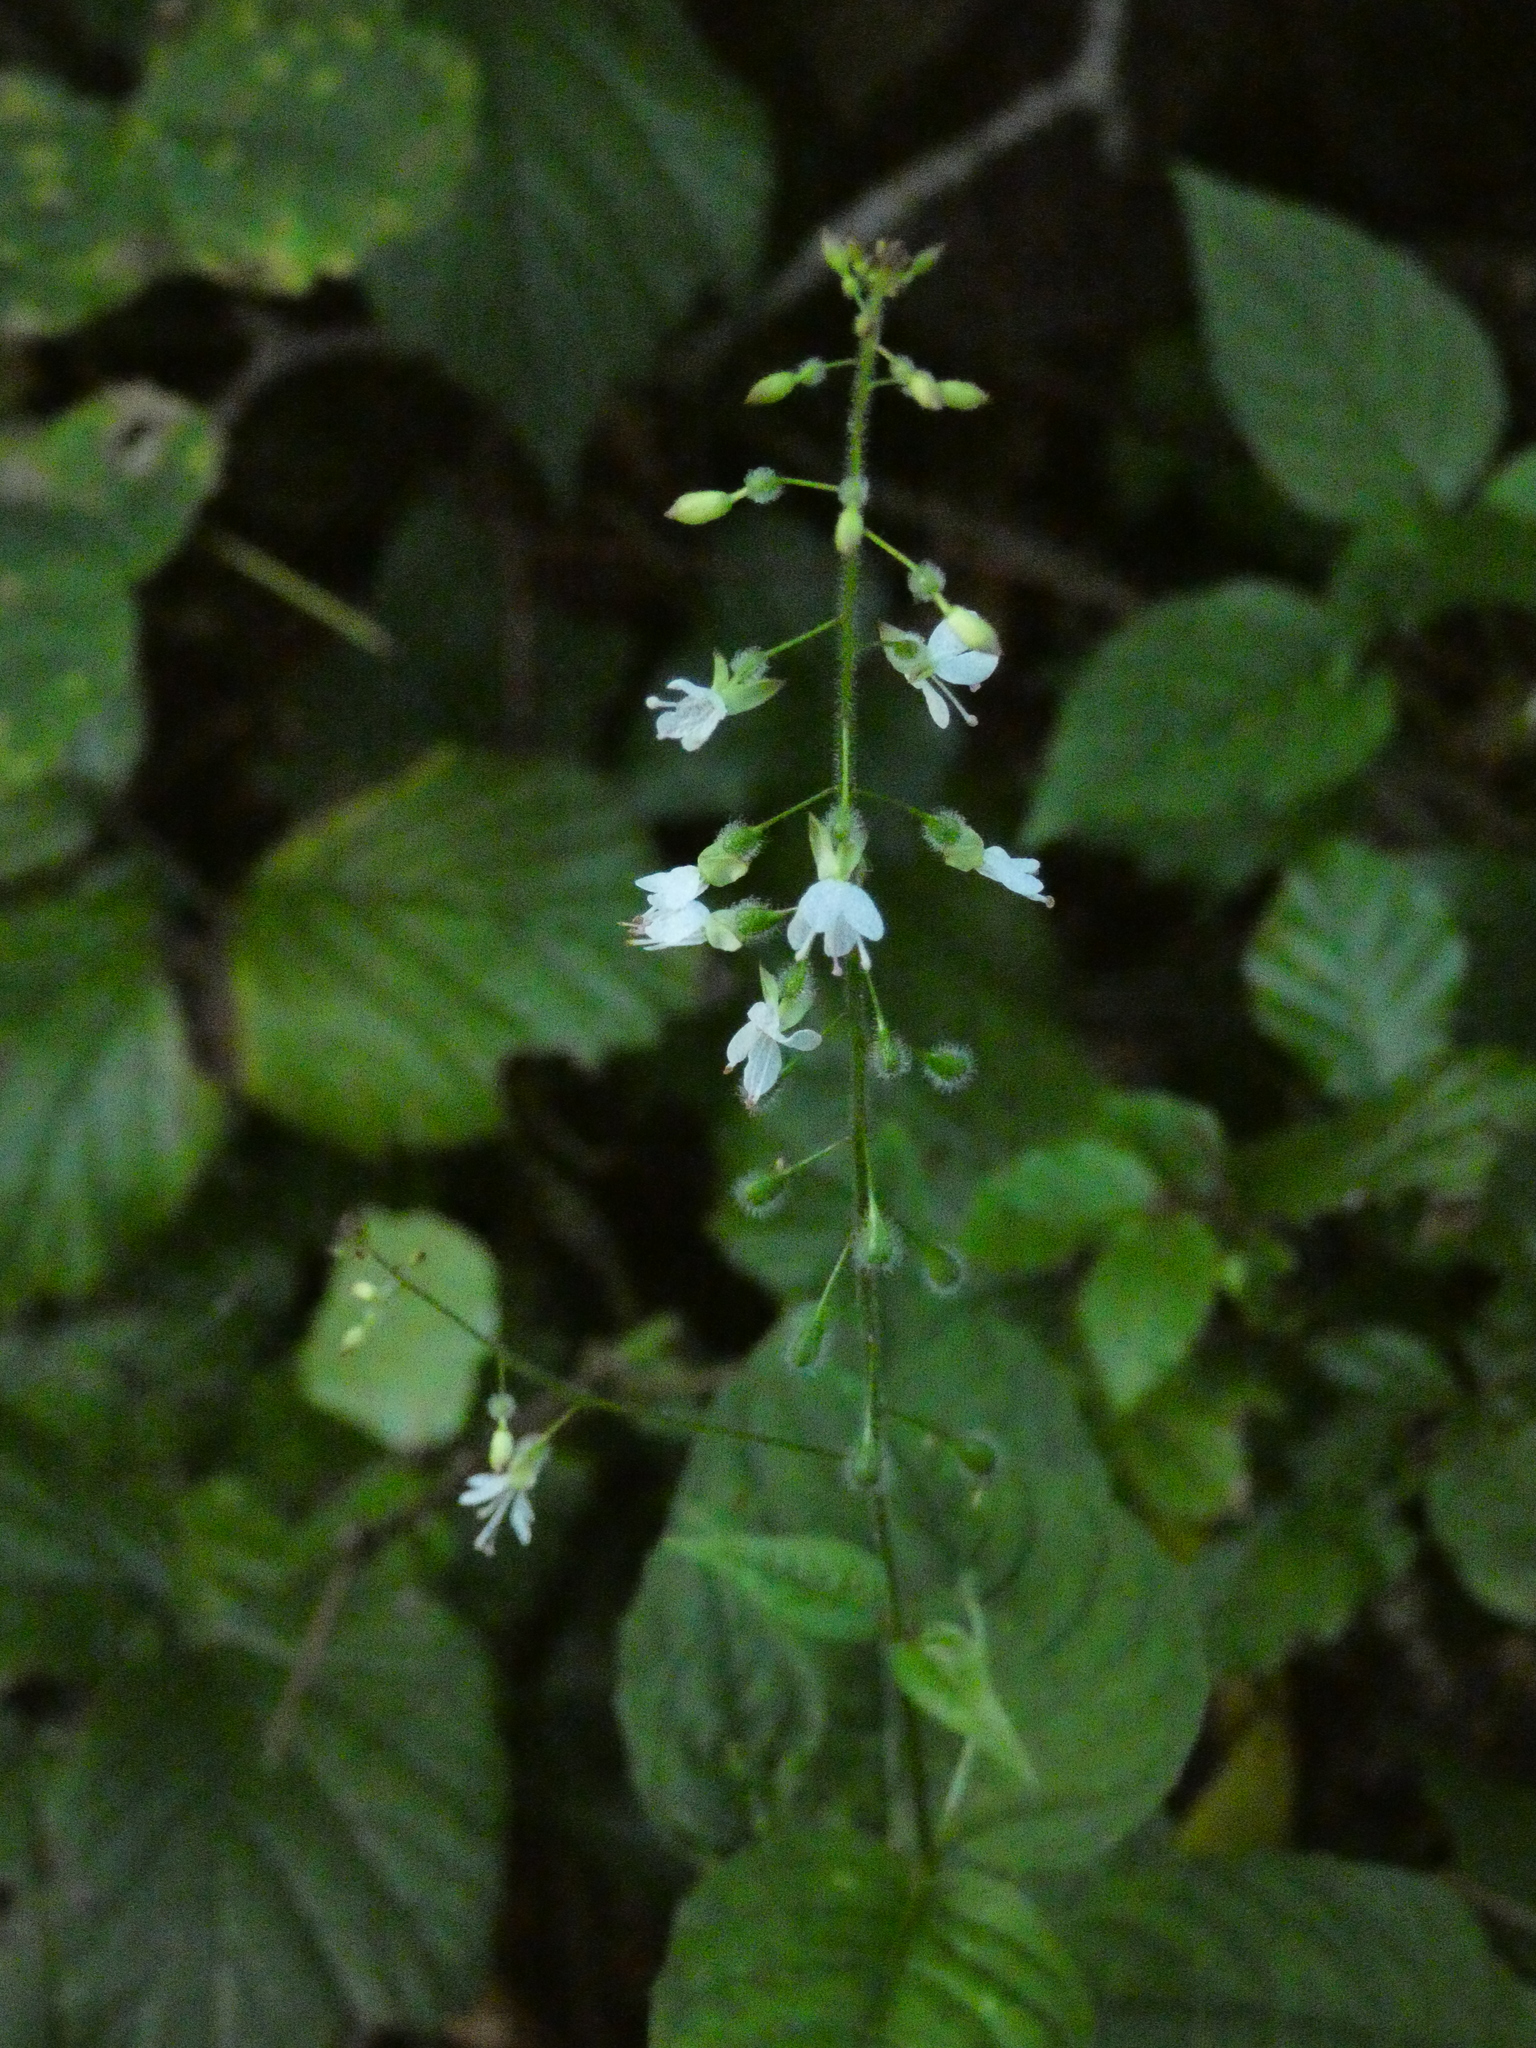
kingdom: Plantae
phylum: Tracheophyta
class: Magnoliopsida
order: Myrtales
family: Onagraceae
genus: Circaea
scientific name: Circaea lutetiana
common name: Enchanter's-nightshade
